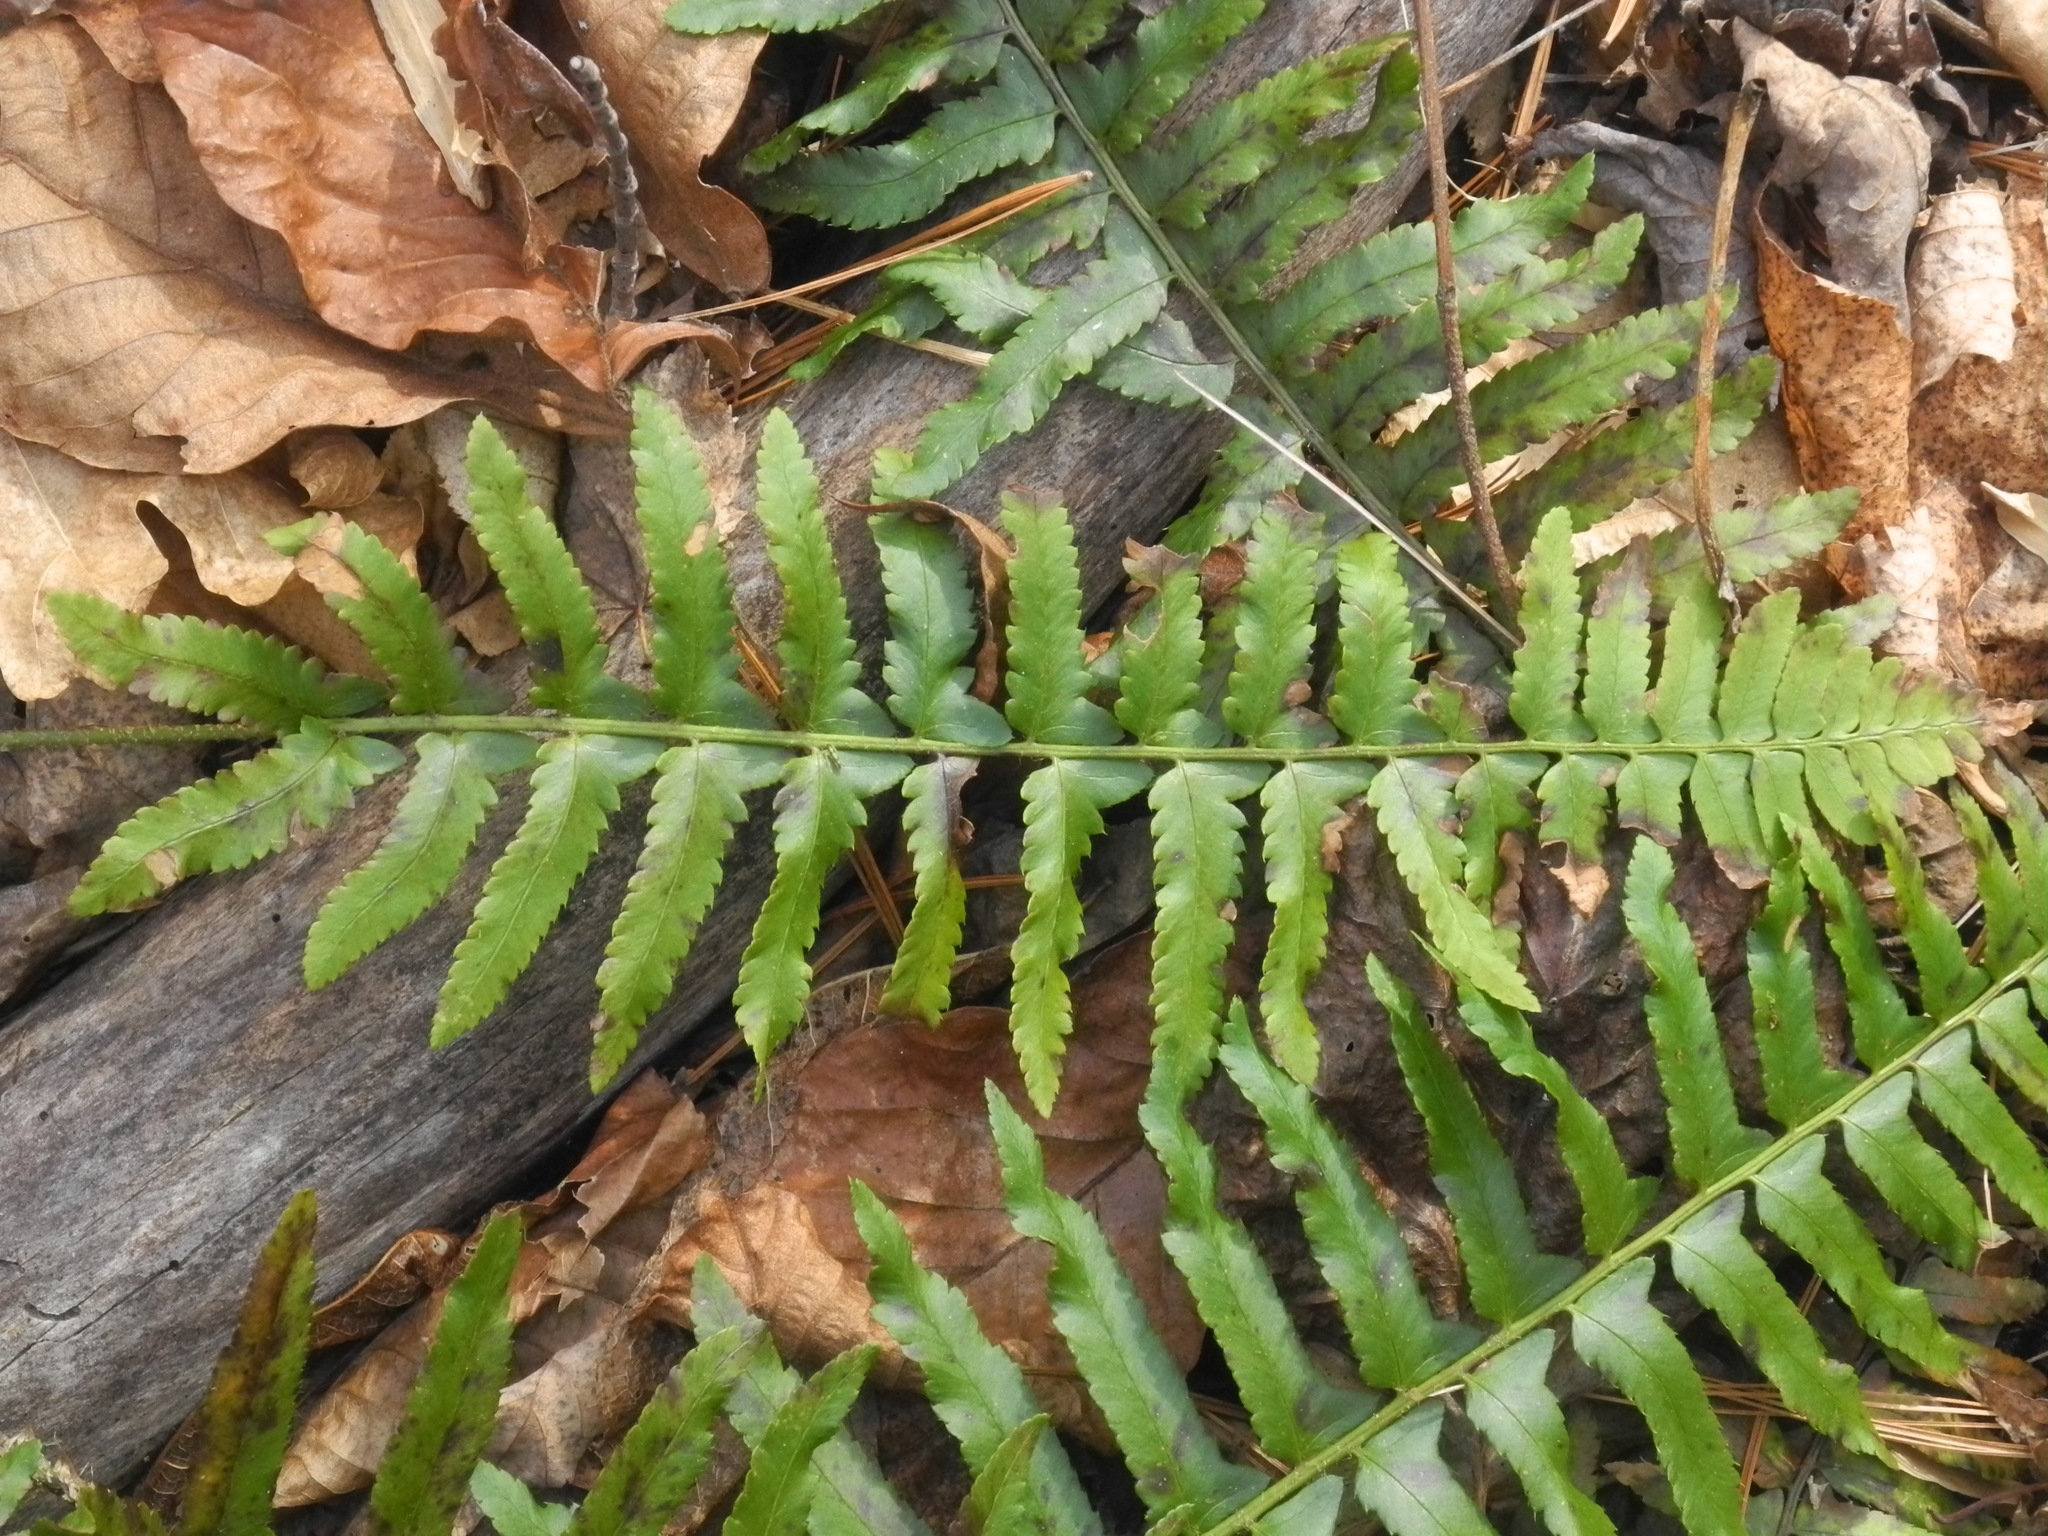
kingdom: Plantae
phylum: Tracheophyta
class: Polypodiopsida
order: Polypodiales
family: Dryopteridaceae
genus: Polystichum
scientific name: Polystichum acrostichoides
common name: Christmas fern
